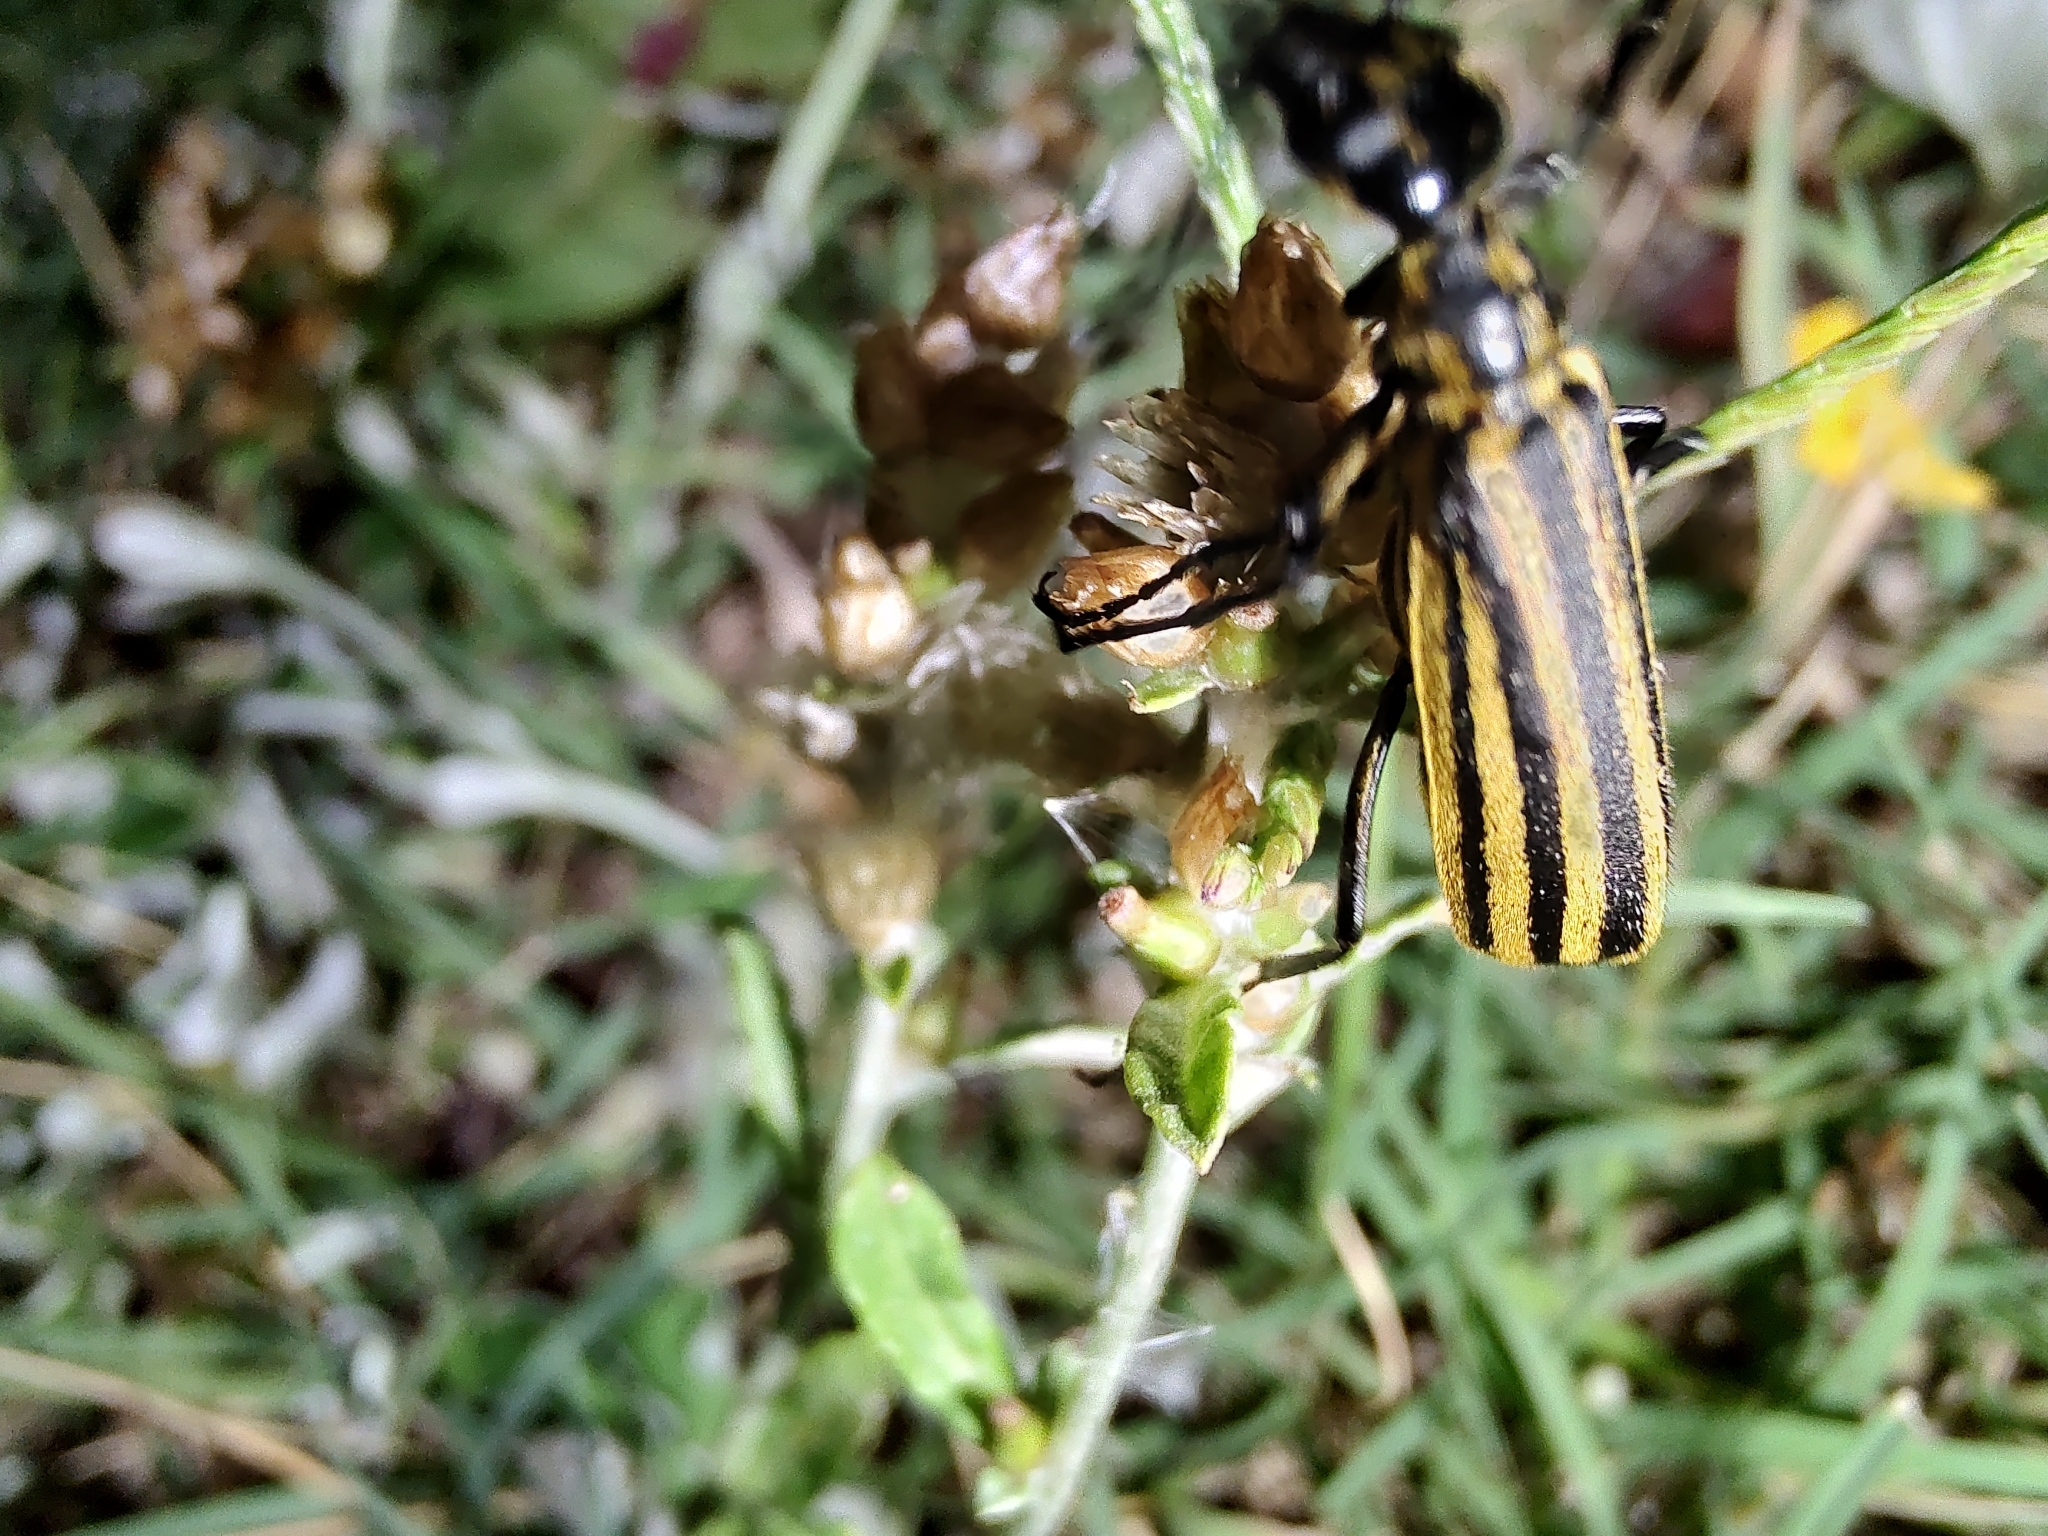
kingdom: Animalia
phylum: Arthropoda
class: Insecta
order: Coleoptera
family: Meloidae
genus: Epicauta
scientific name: Epicauta excavata
